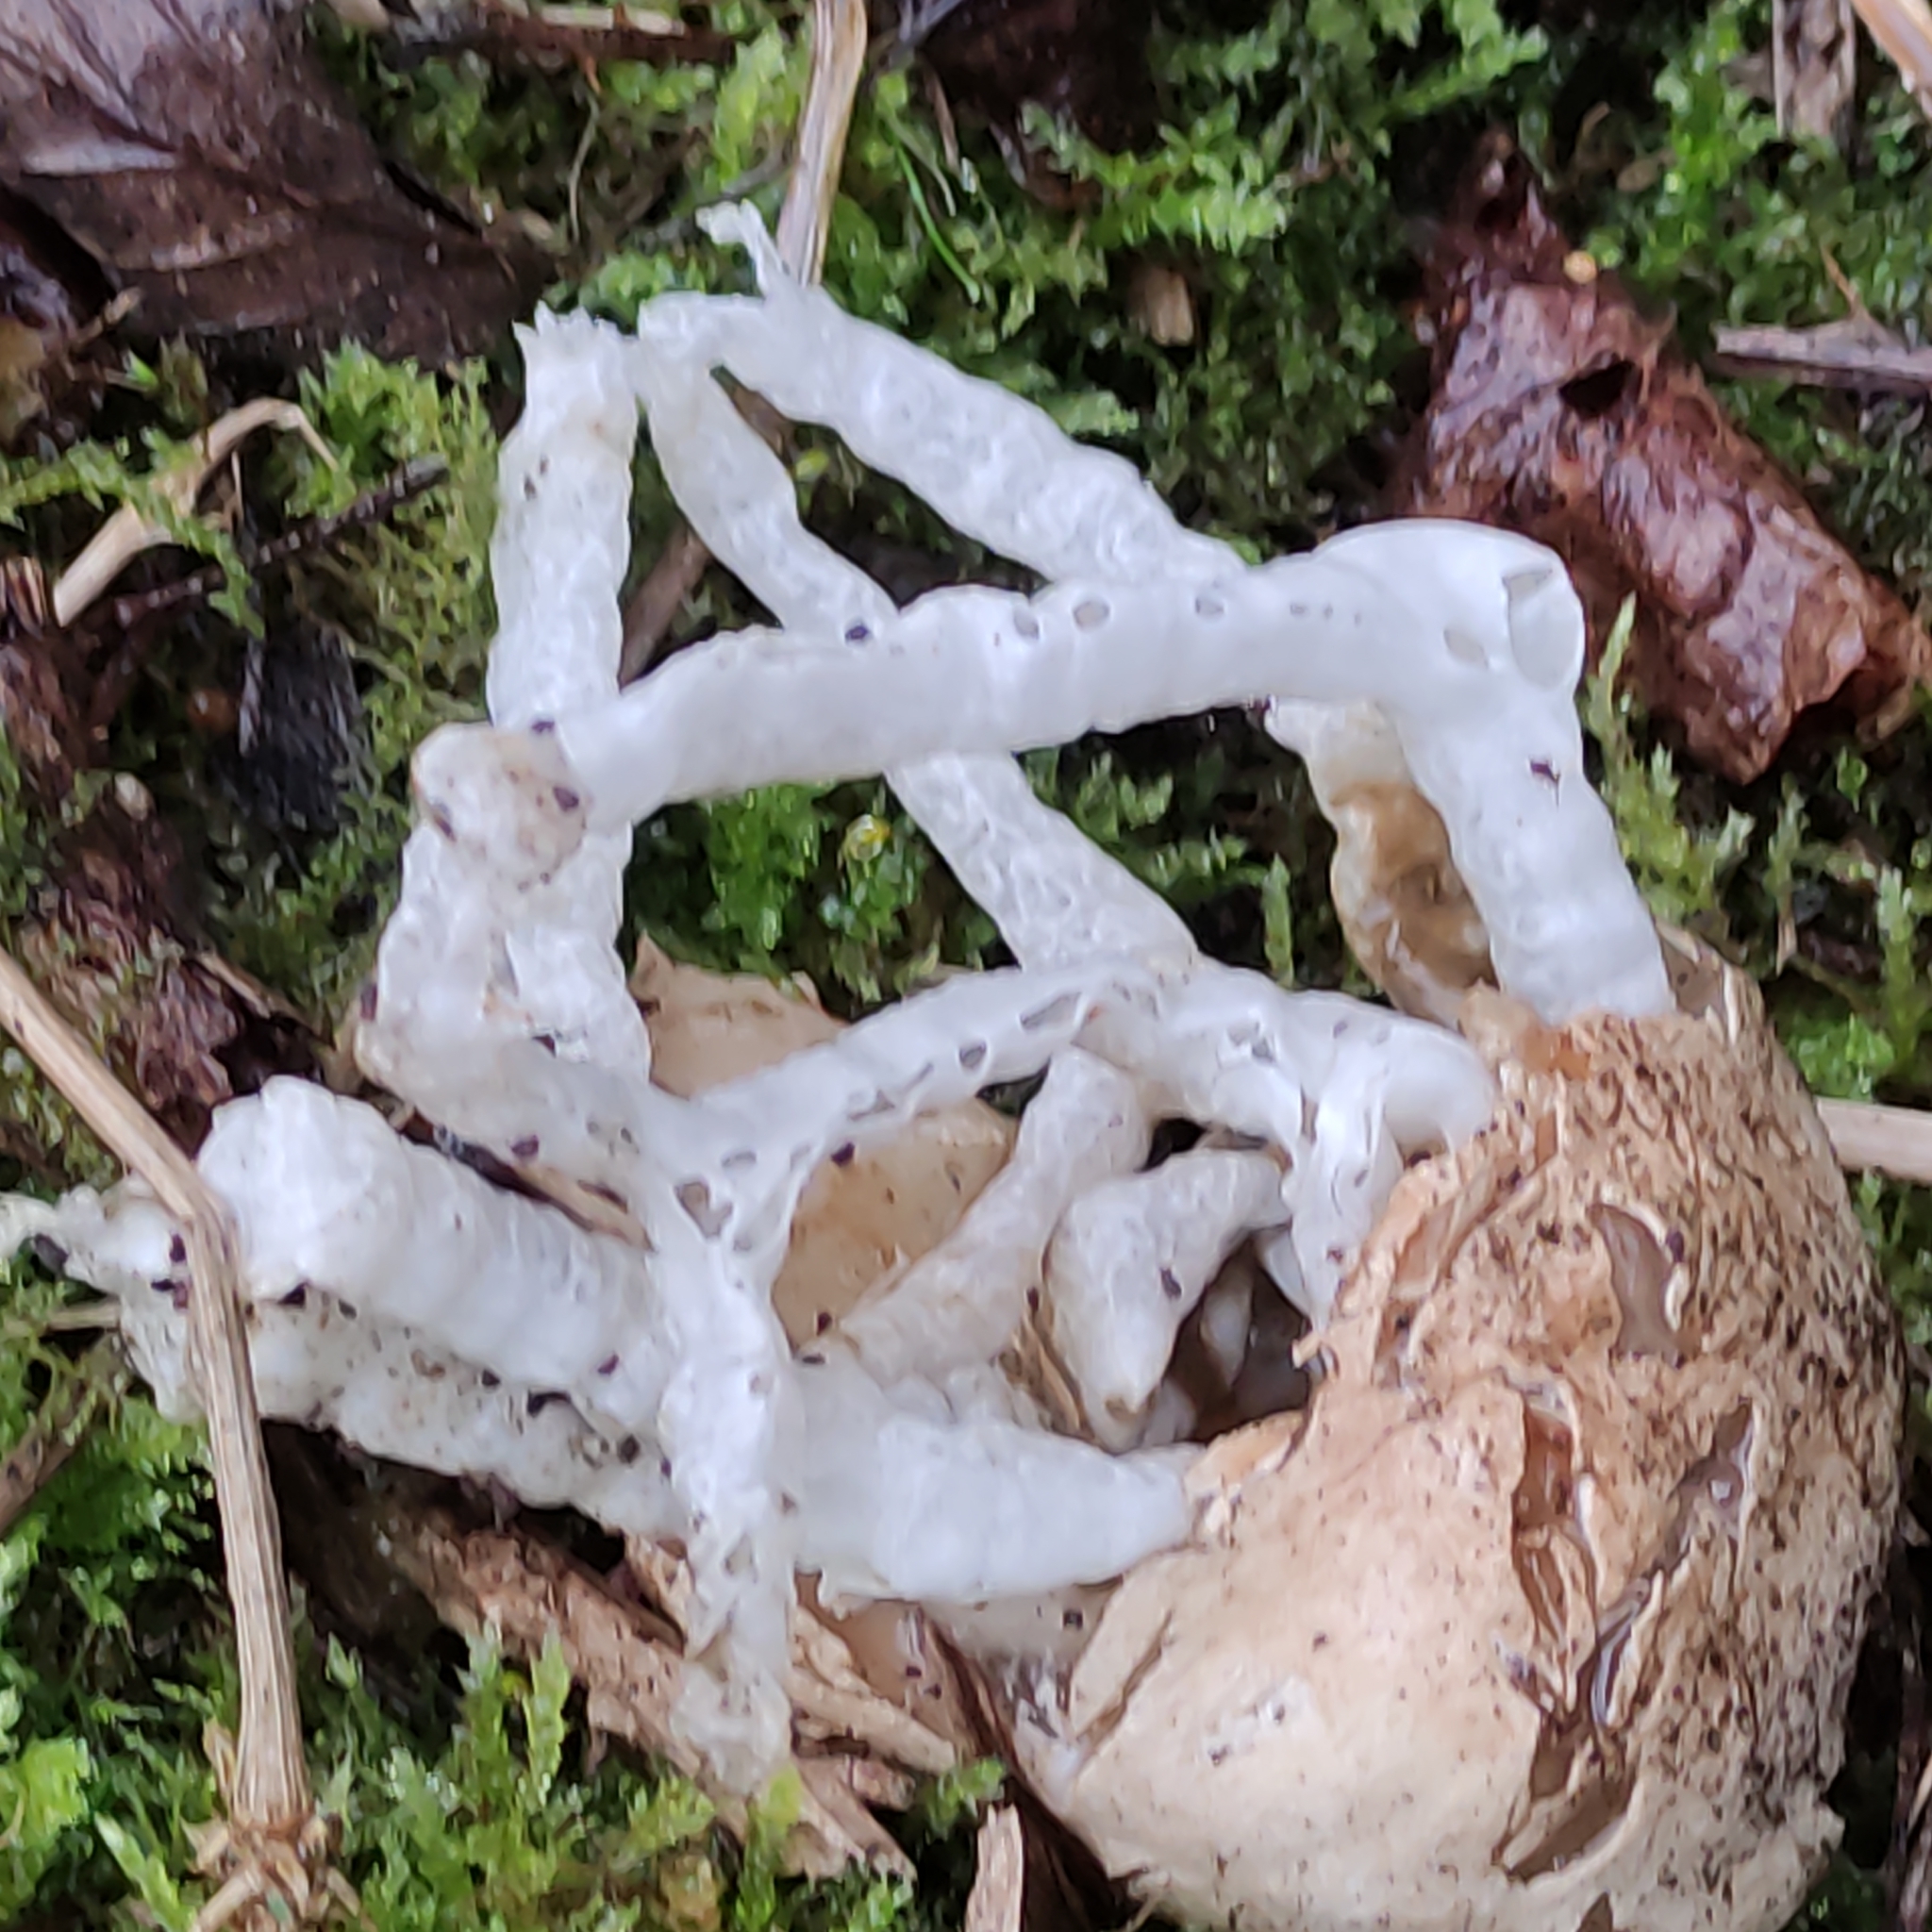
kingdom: Fungi
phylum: Basidiomycota
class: Agaricomycetes
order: Phallales
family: Phallaceae
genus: Ileodictyon
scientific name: Ileodictyon cibarium
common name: Basket fungus
